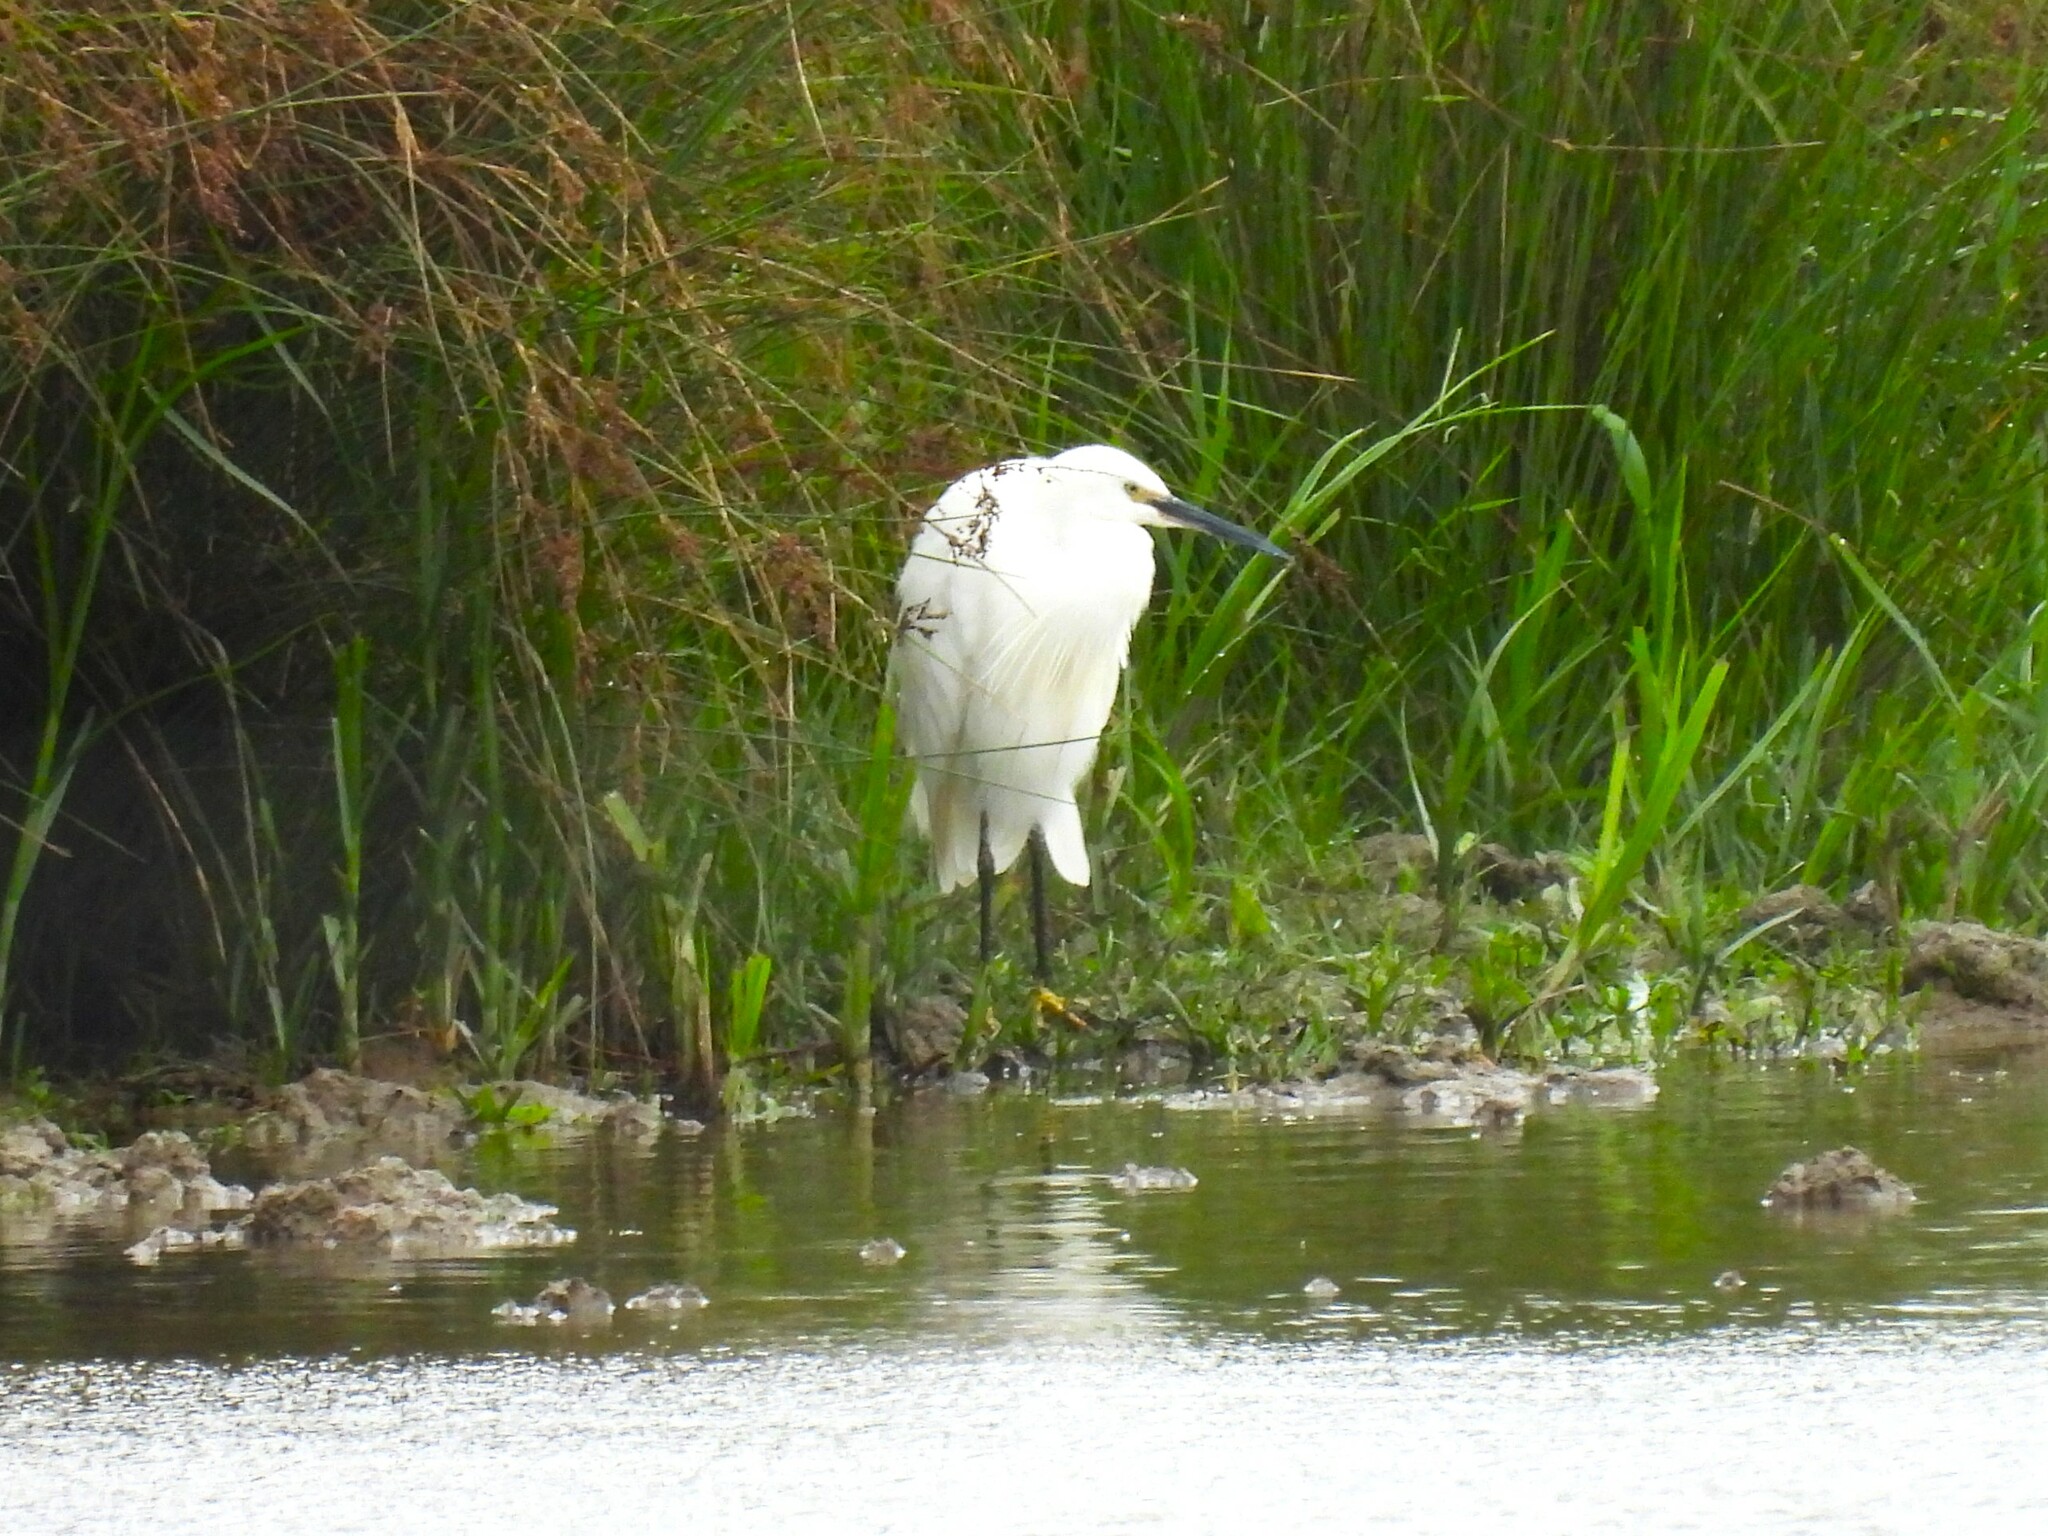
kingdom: Animalia
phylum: Chordata
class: Aves
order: Pelecaniformes
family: Ardeidae
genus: Egretta
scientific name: Egretta garzetta
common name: Little egret
